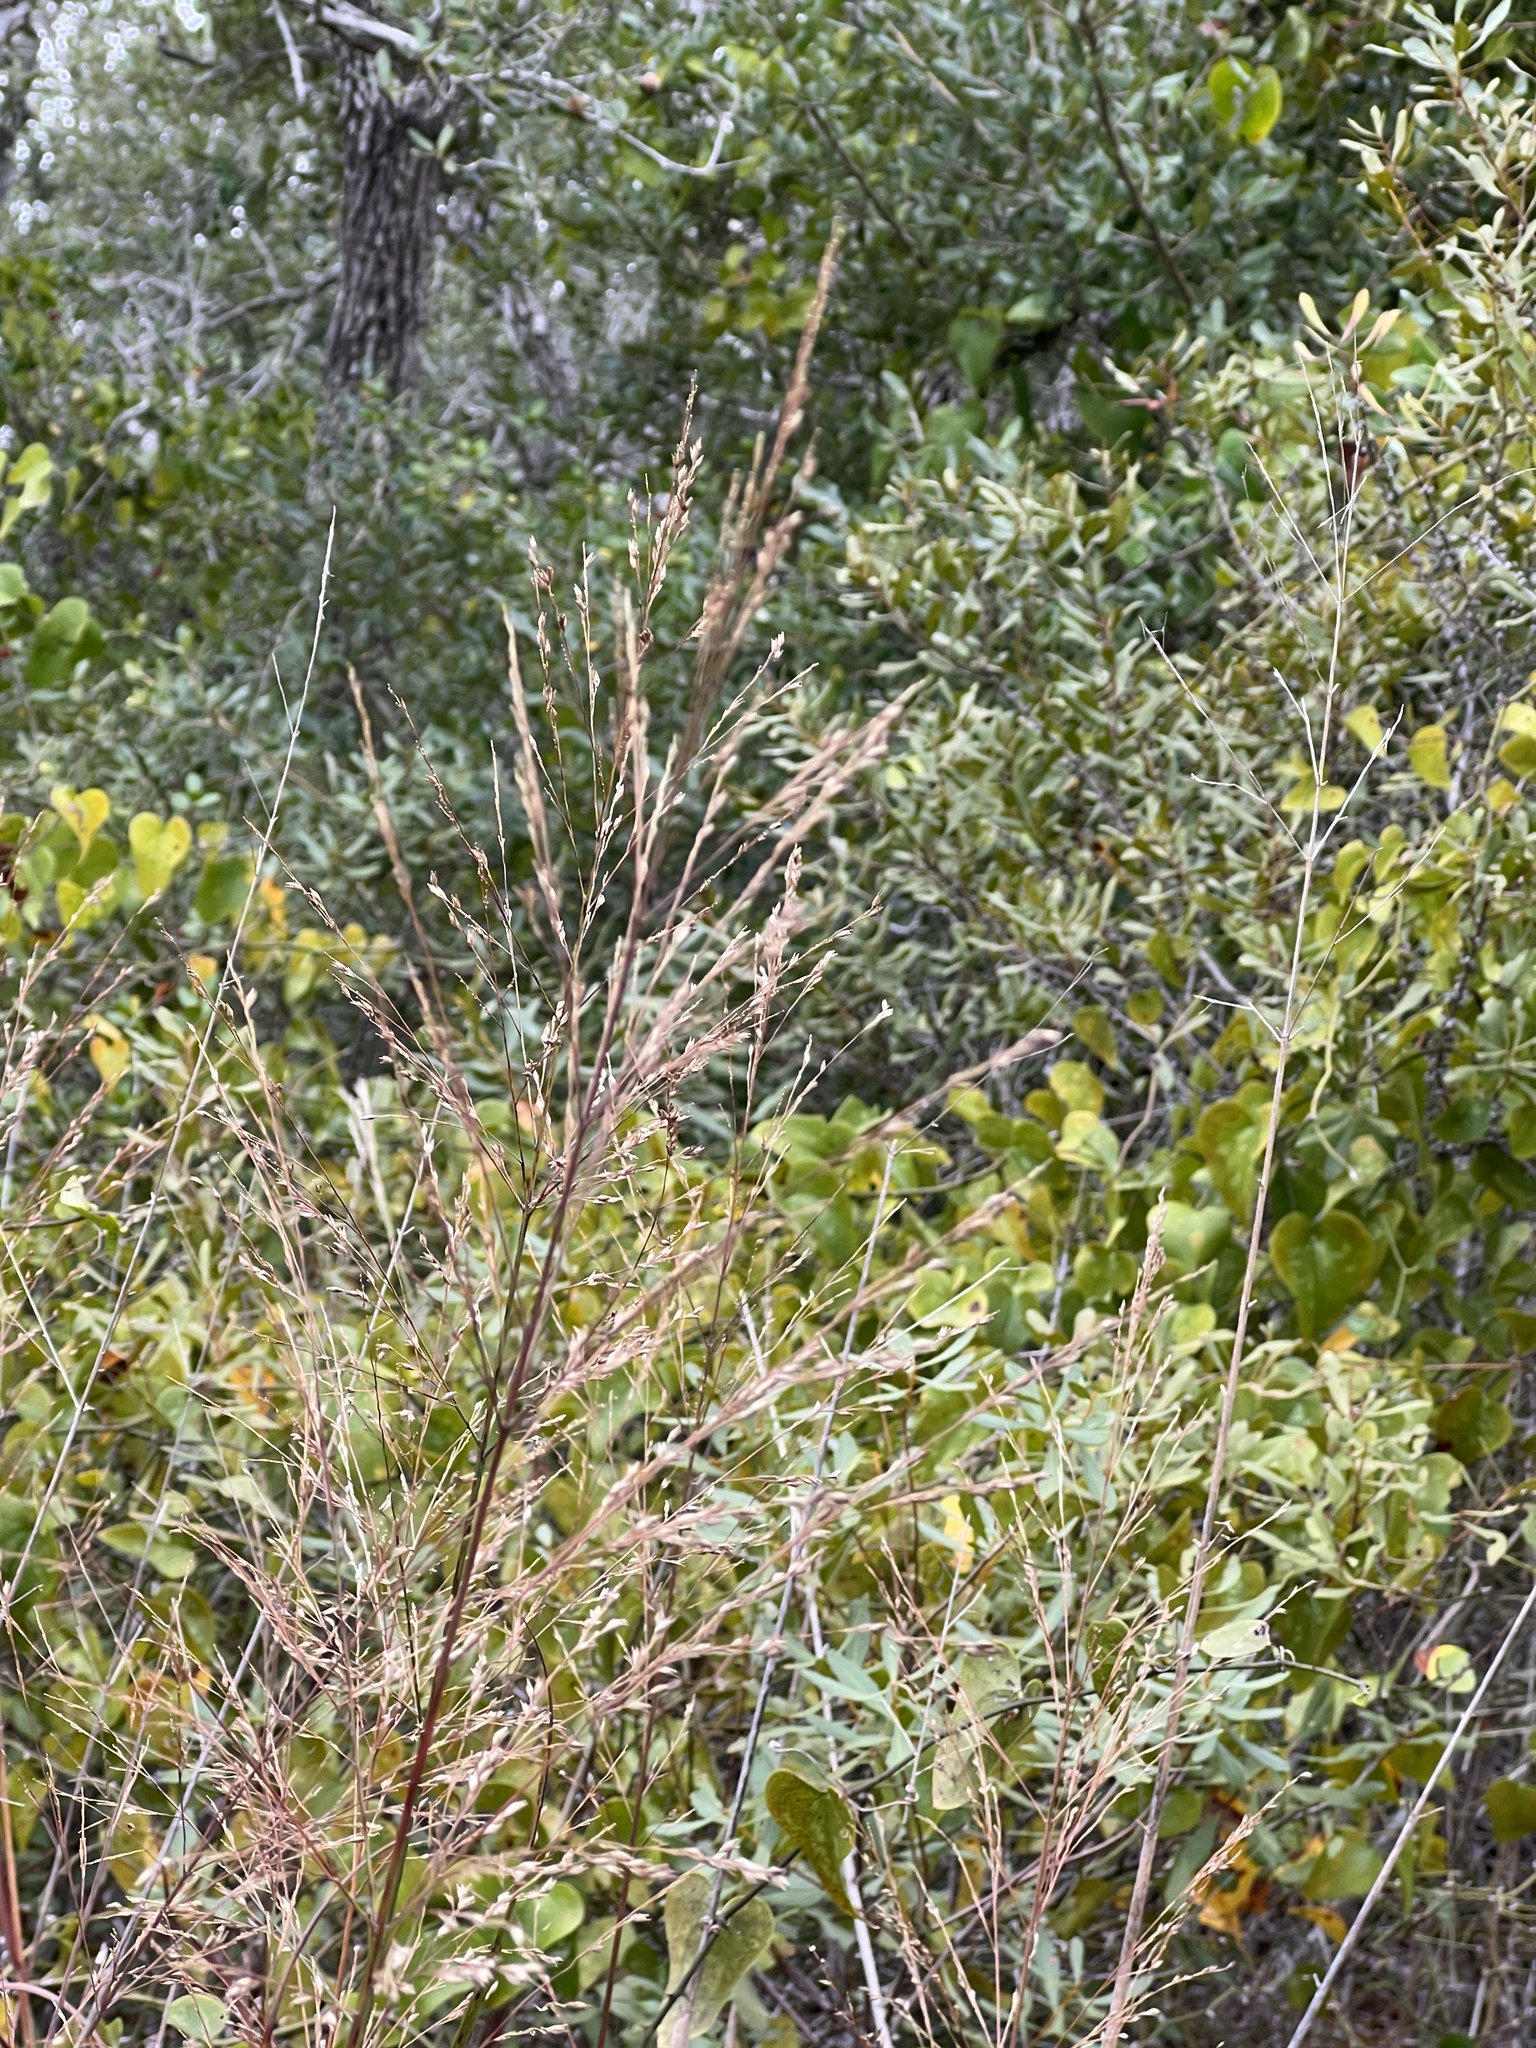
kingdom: Plantae
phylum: Tracheophyta
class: Liliopsida
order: Poales
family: Poaceae
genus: Panicum
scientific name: Panicum virgatum
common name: Switchgrass
